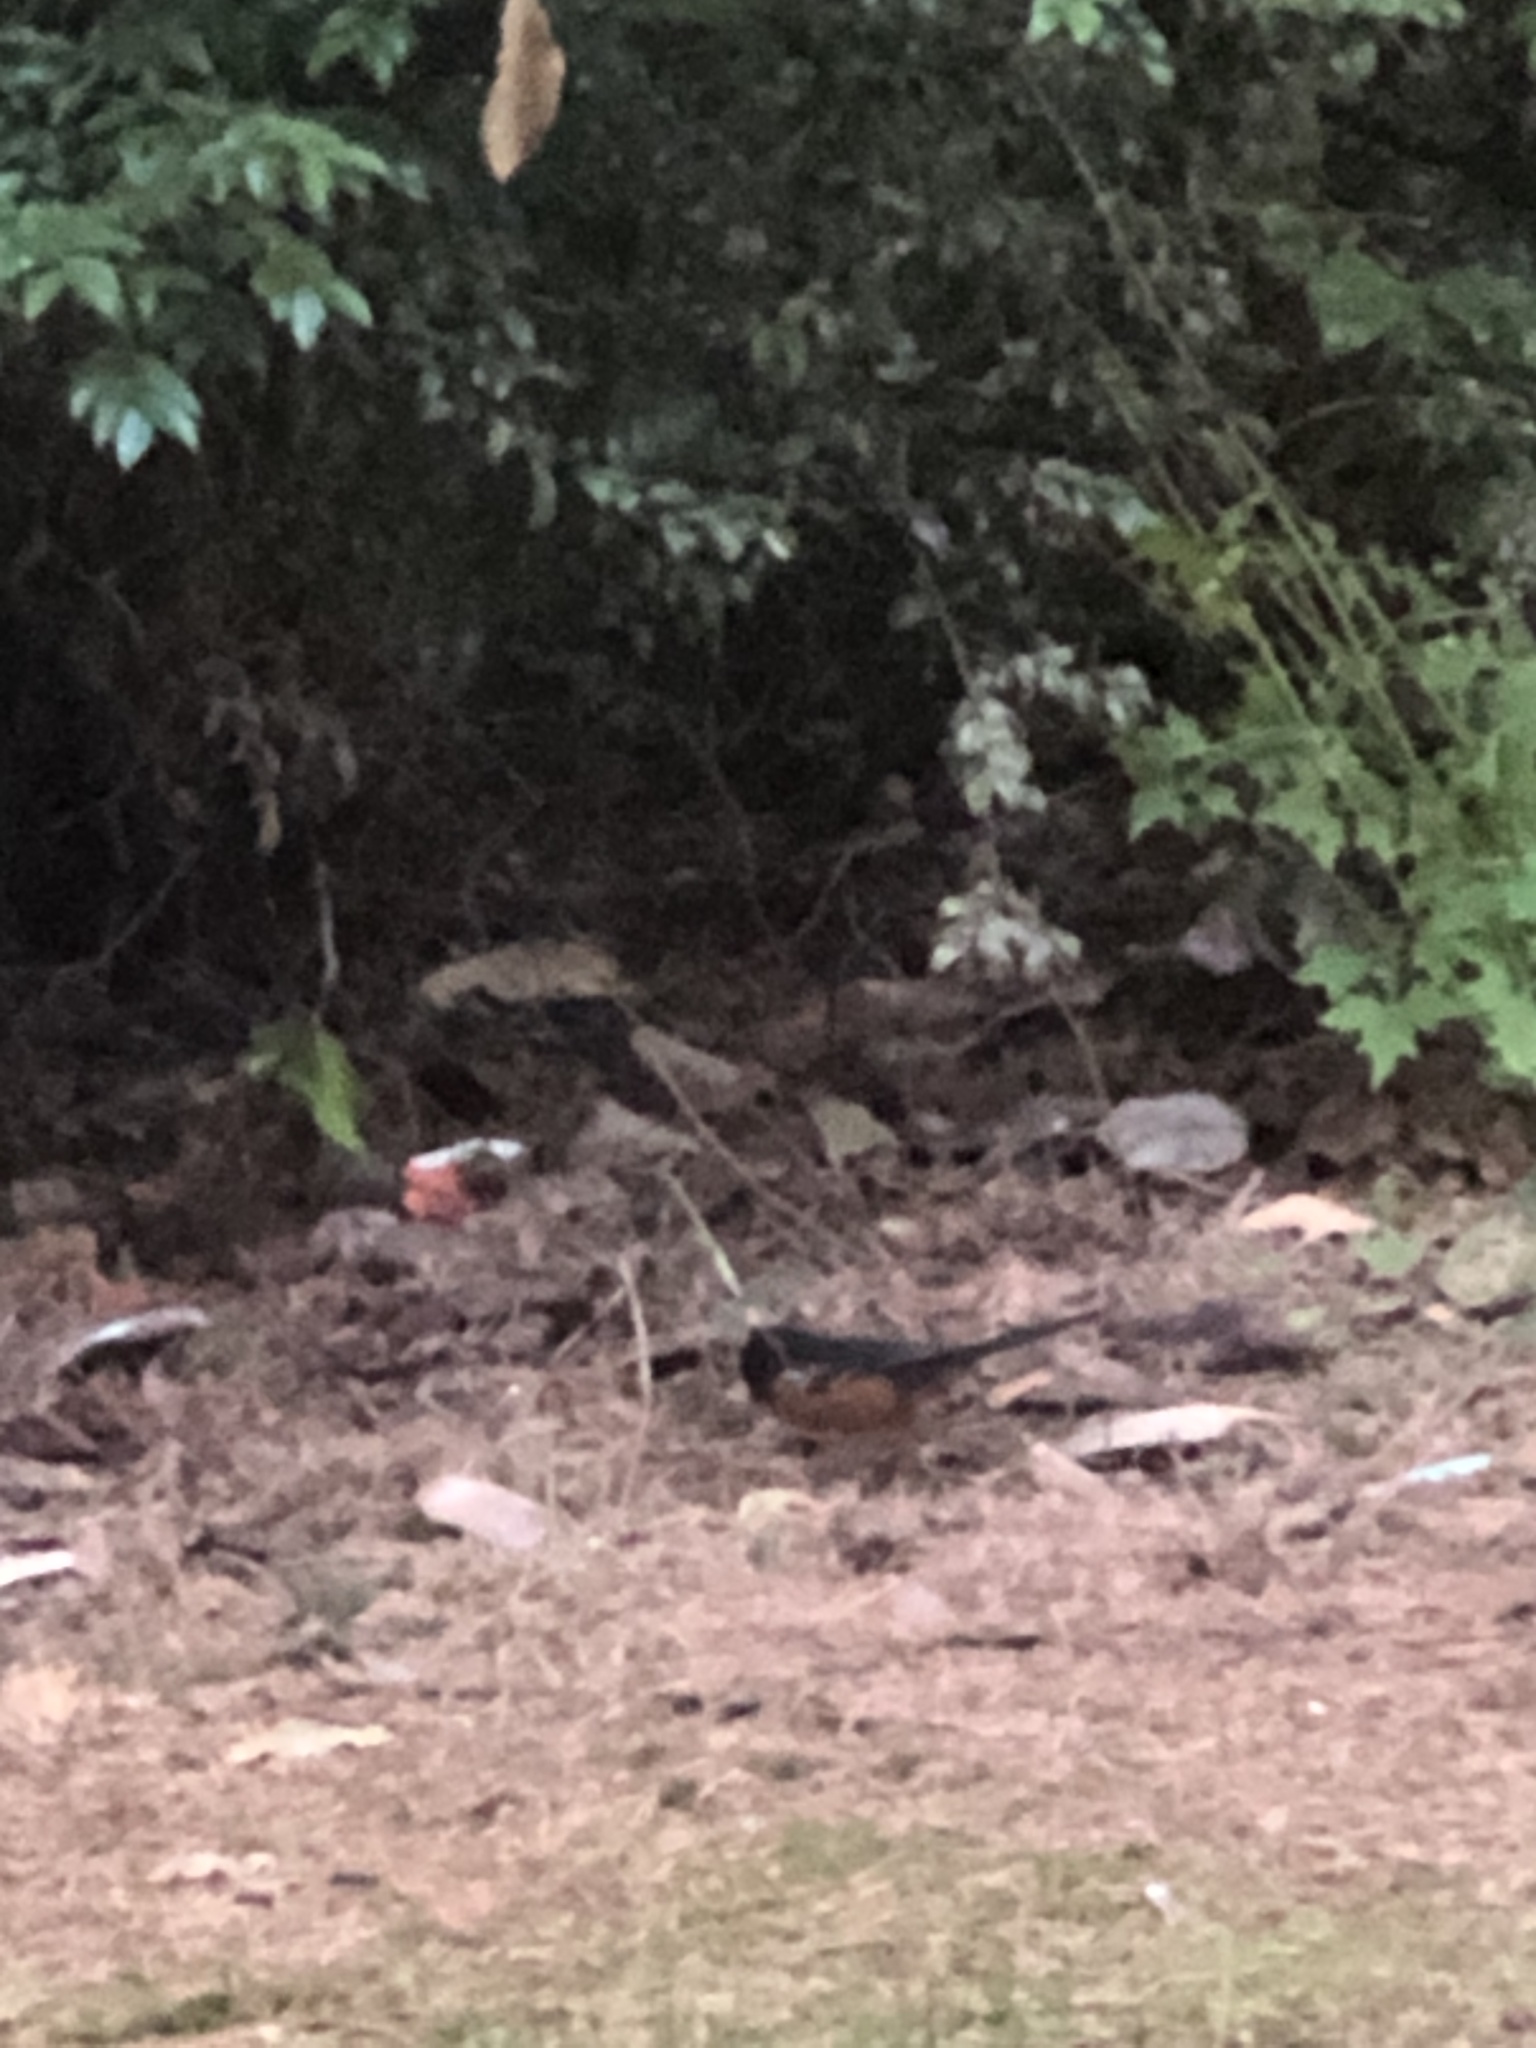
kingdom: Animalia
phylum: Chordata
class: Aves
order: Passeriformes
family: Passerellidae
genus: Pipilo
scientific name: Pipilo maculatus
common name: Spotted towhee
